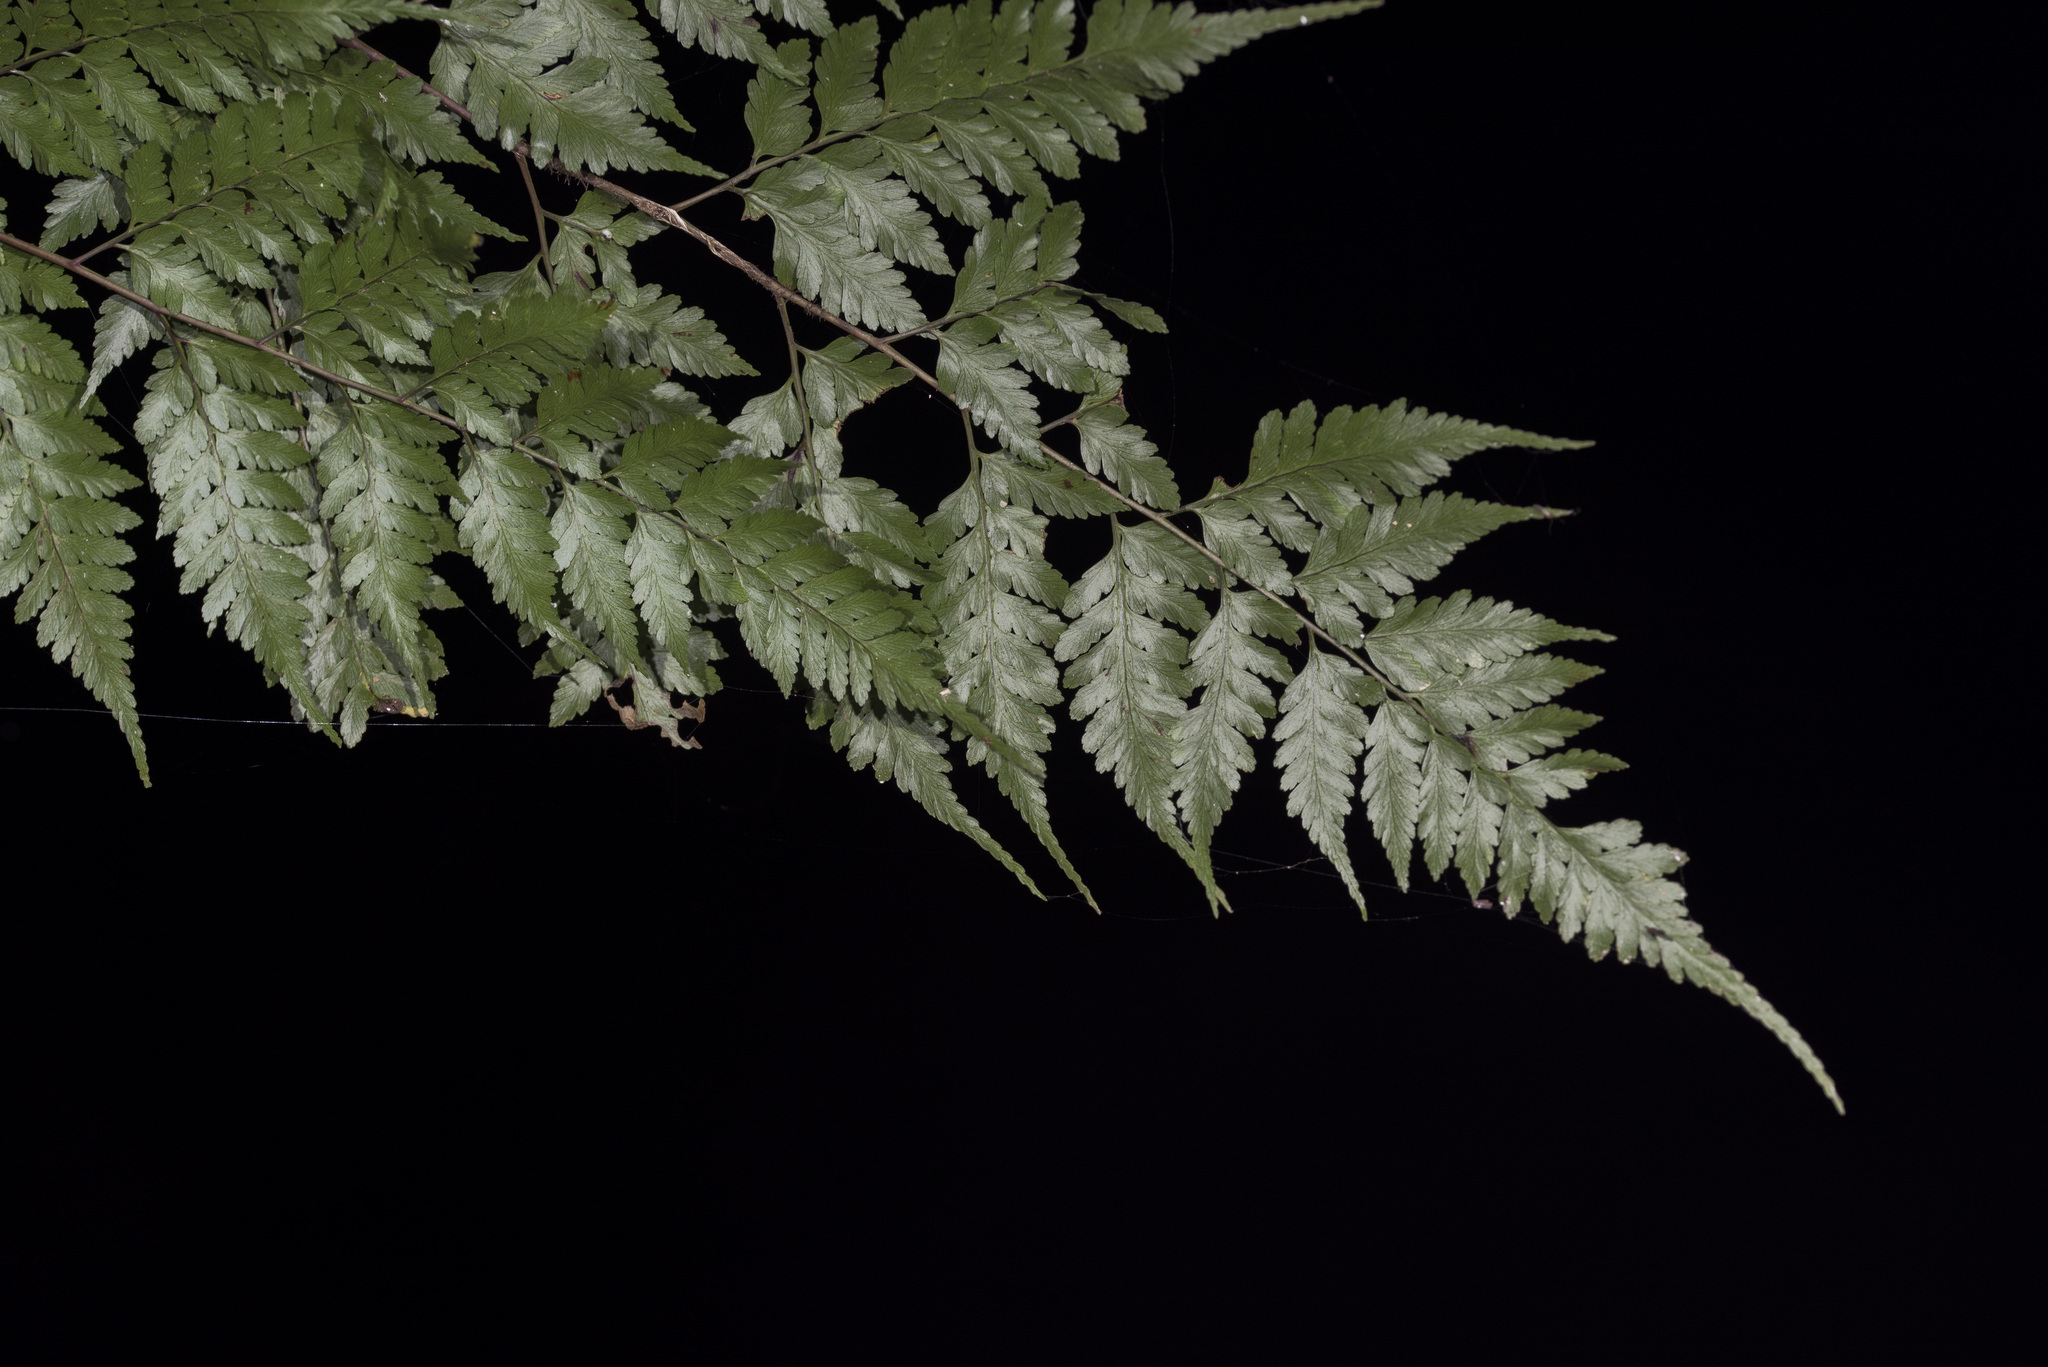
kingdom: Plantae
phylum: Tracheophyta
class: Polypodiopsida
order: Polypodiales
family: Davalliaceae
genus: Davallia
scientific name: Davallia divaricata
